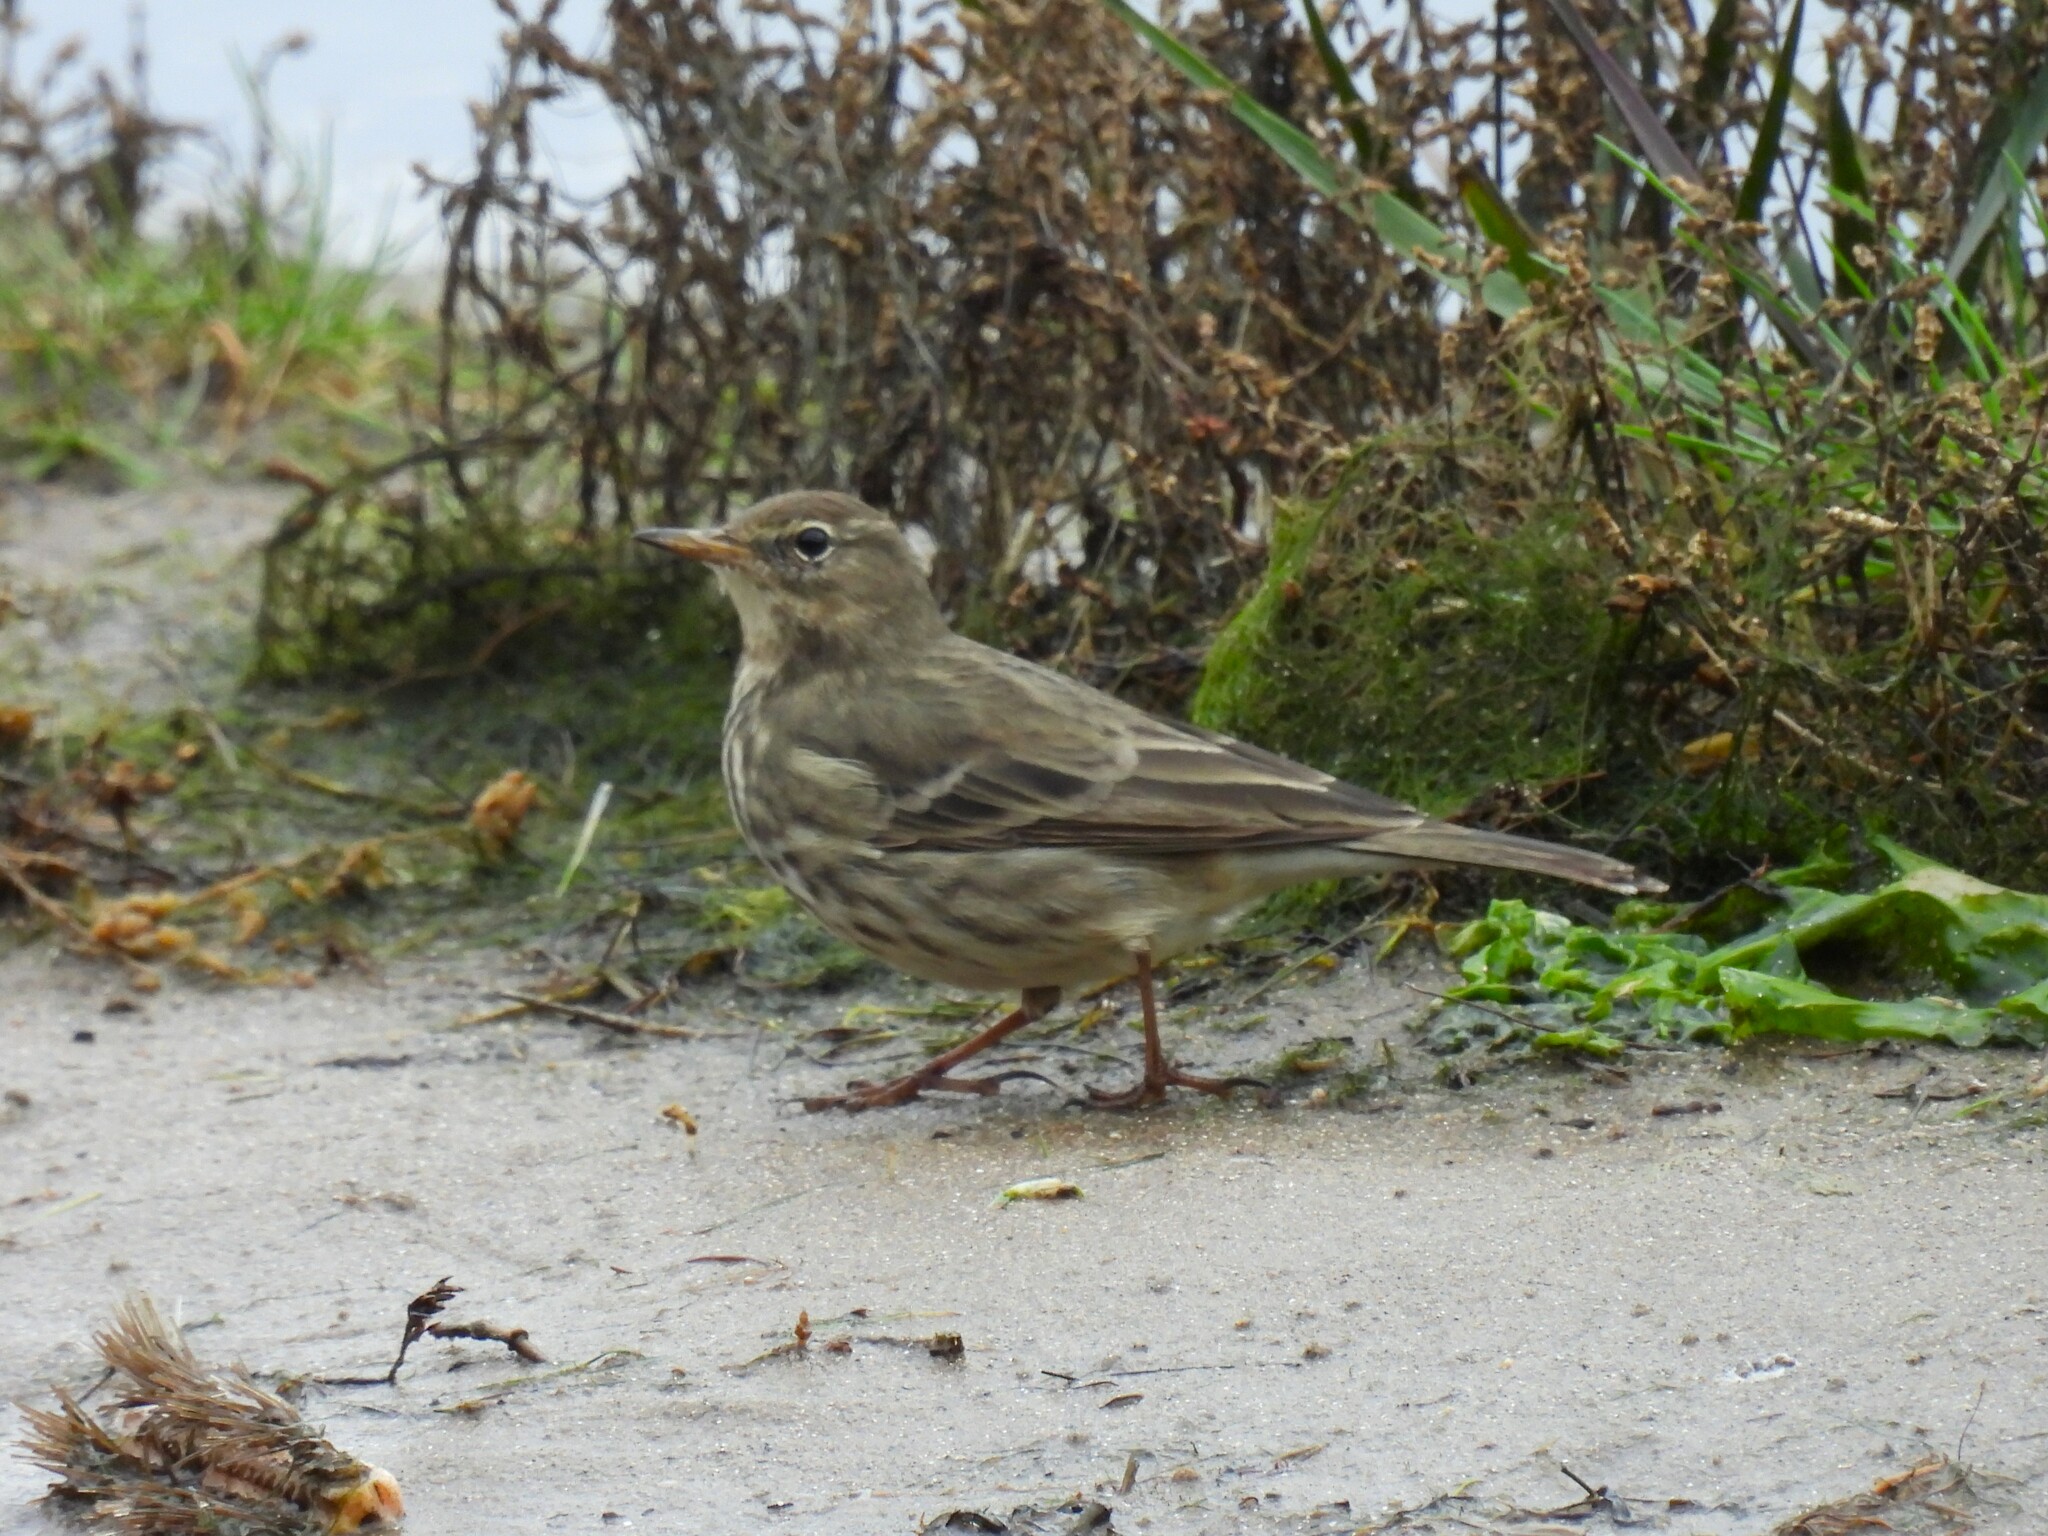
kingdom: Animalia
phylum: Chordata
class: Aves
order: Passeriformes
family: Motacillidae
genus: Anthus
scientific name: Anthus petrosus
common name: Eurasian rock pipit
